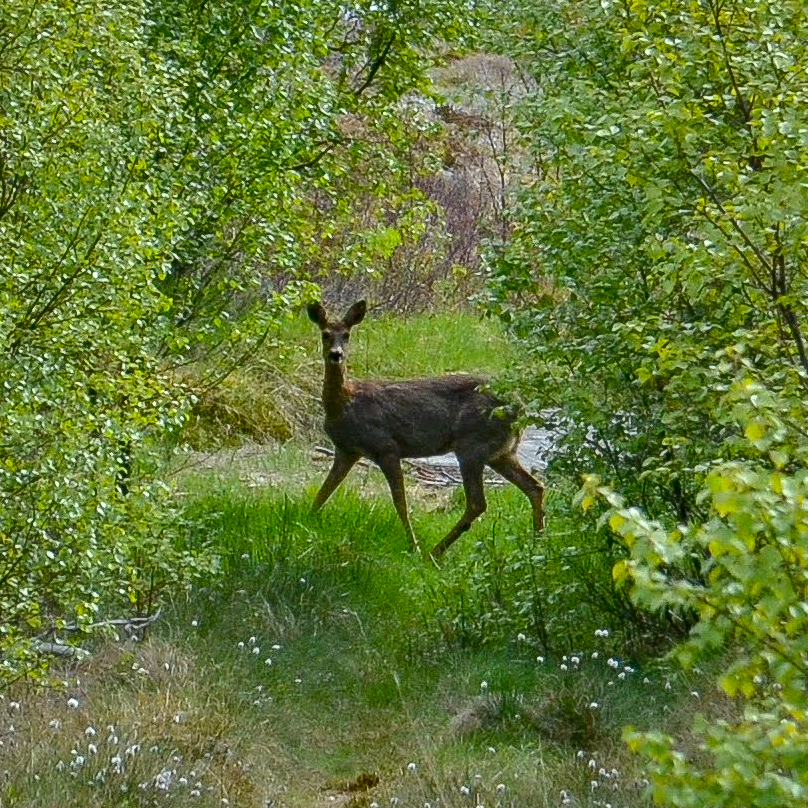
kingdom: Animalia
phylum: Chordata
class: Mammalia
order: Artiodactyla
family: Cervidae
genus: Capreolus
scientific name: Capreolus capreolus
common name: Western roe deer
